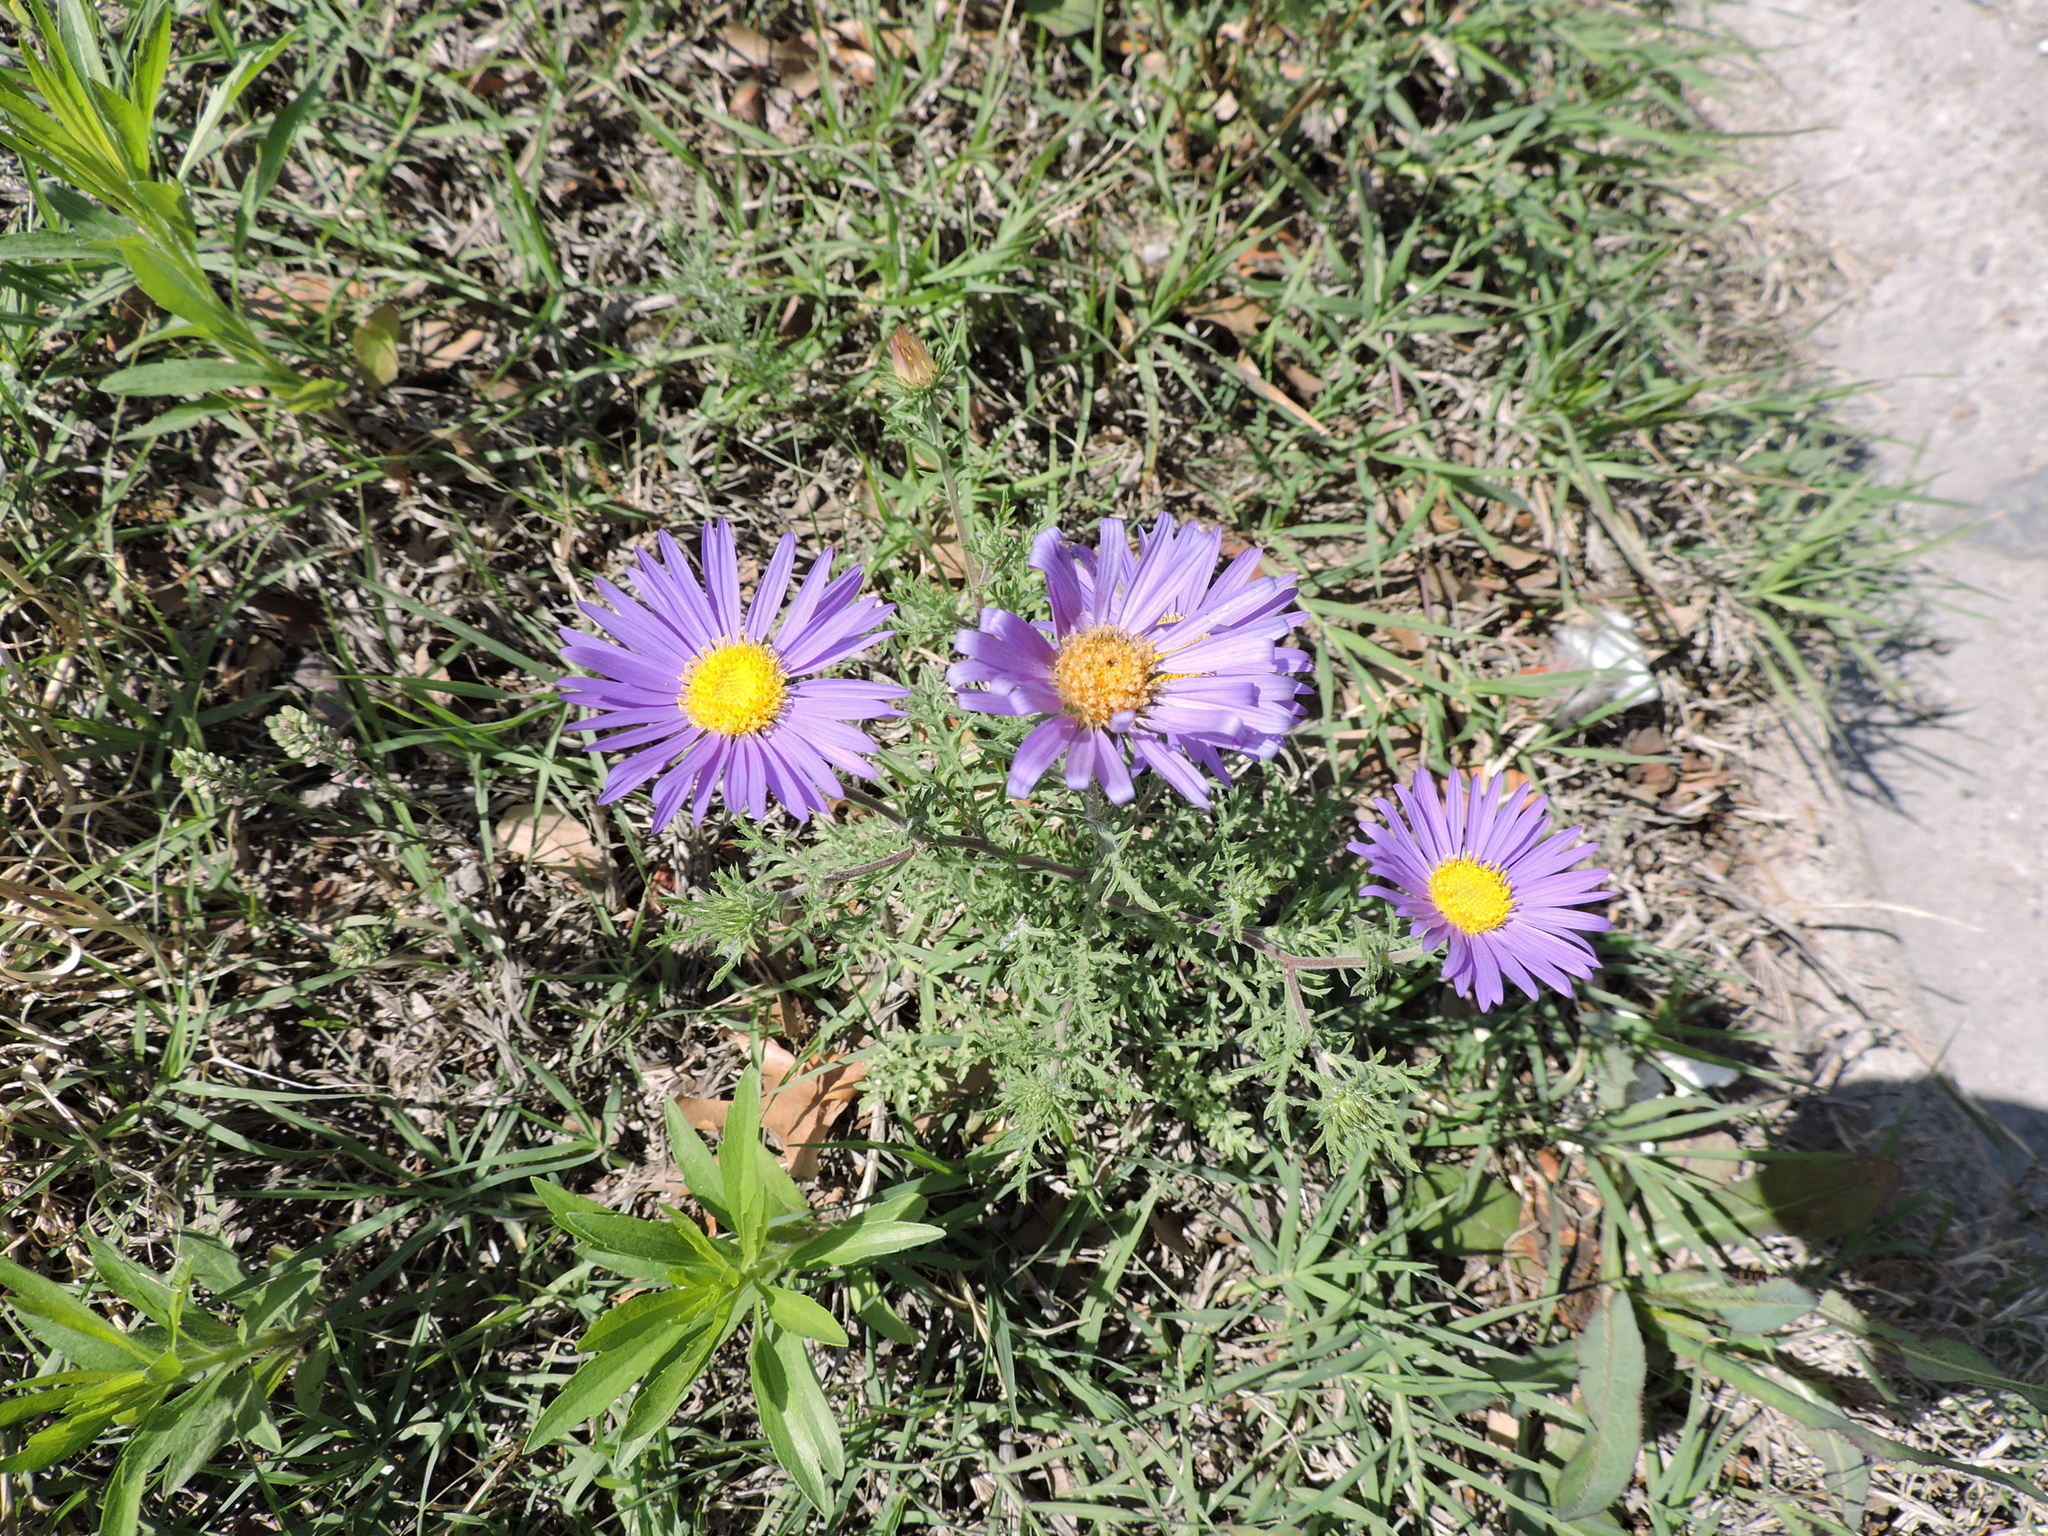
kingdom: Plantae
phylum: Tracheophyta
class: Magnoliopsida
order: Asterales
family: Asteraceae
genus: Machaeranthera
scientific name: Machaeranthera tanacetifolia
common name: Tansy-aster
